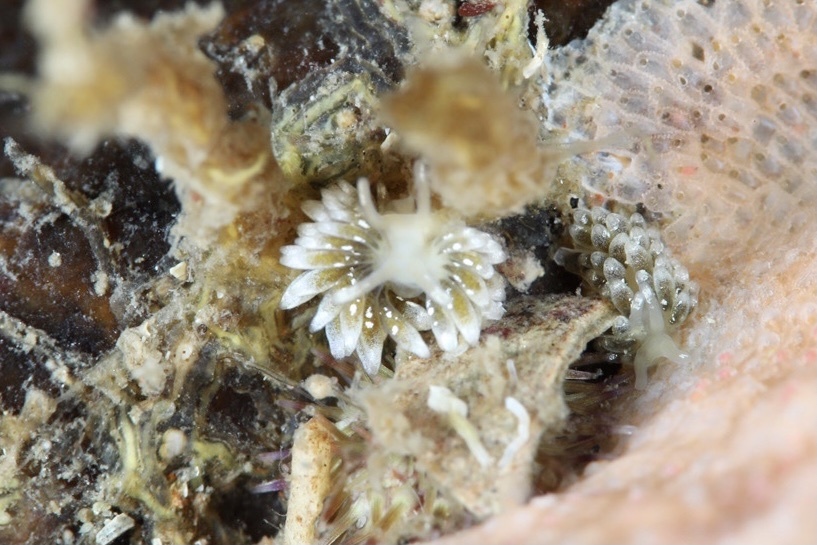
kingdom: Animalia
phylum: Mollusca
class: Gastropoda
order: Nudibranchia
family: Trinchesiidae
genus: Zelentia
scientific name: Zelentia pustulata
